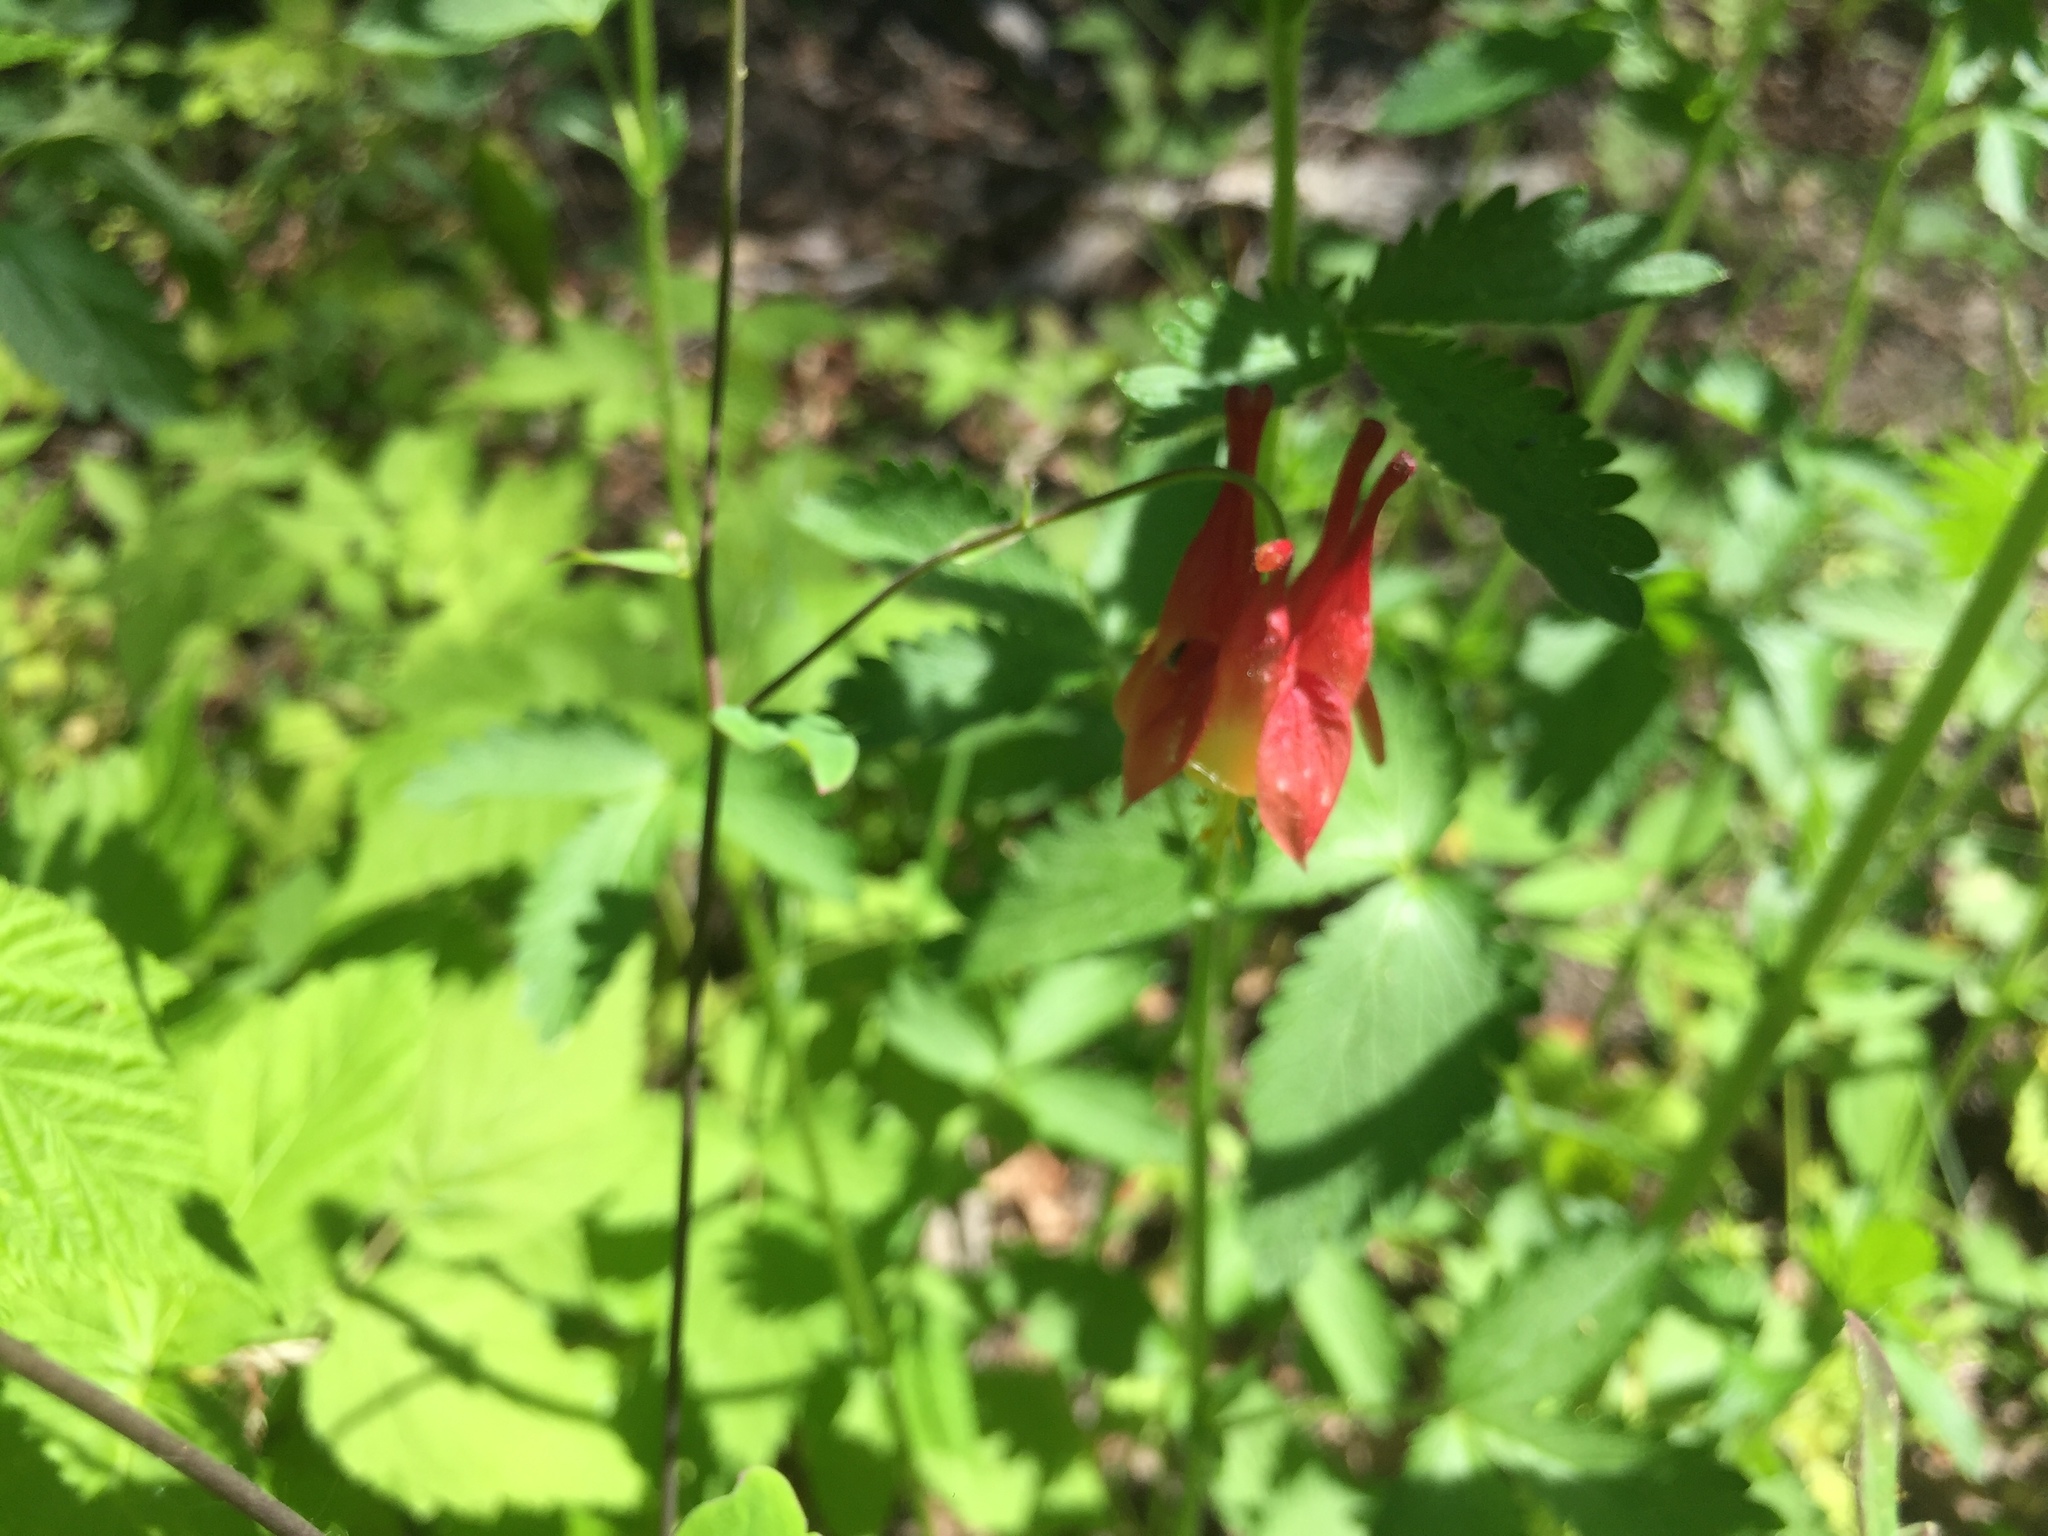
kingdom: Plantae
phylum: Tracheophyta
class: Magnoliopsida
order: Ranunculales
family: Ranunculaceae
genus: Aquilegia
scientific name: Aquilegia canadensis
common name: American columbine
